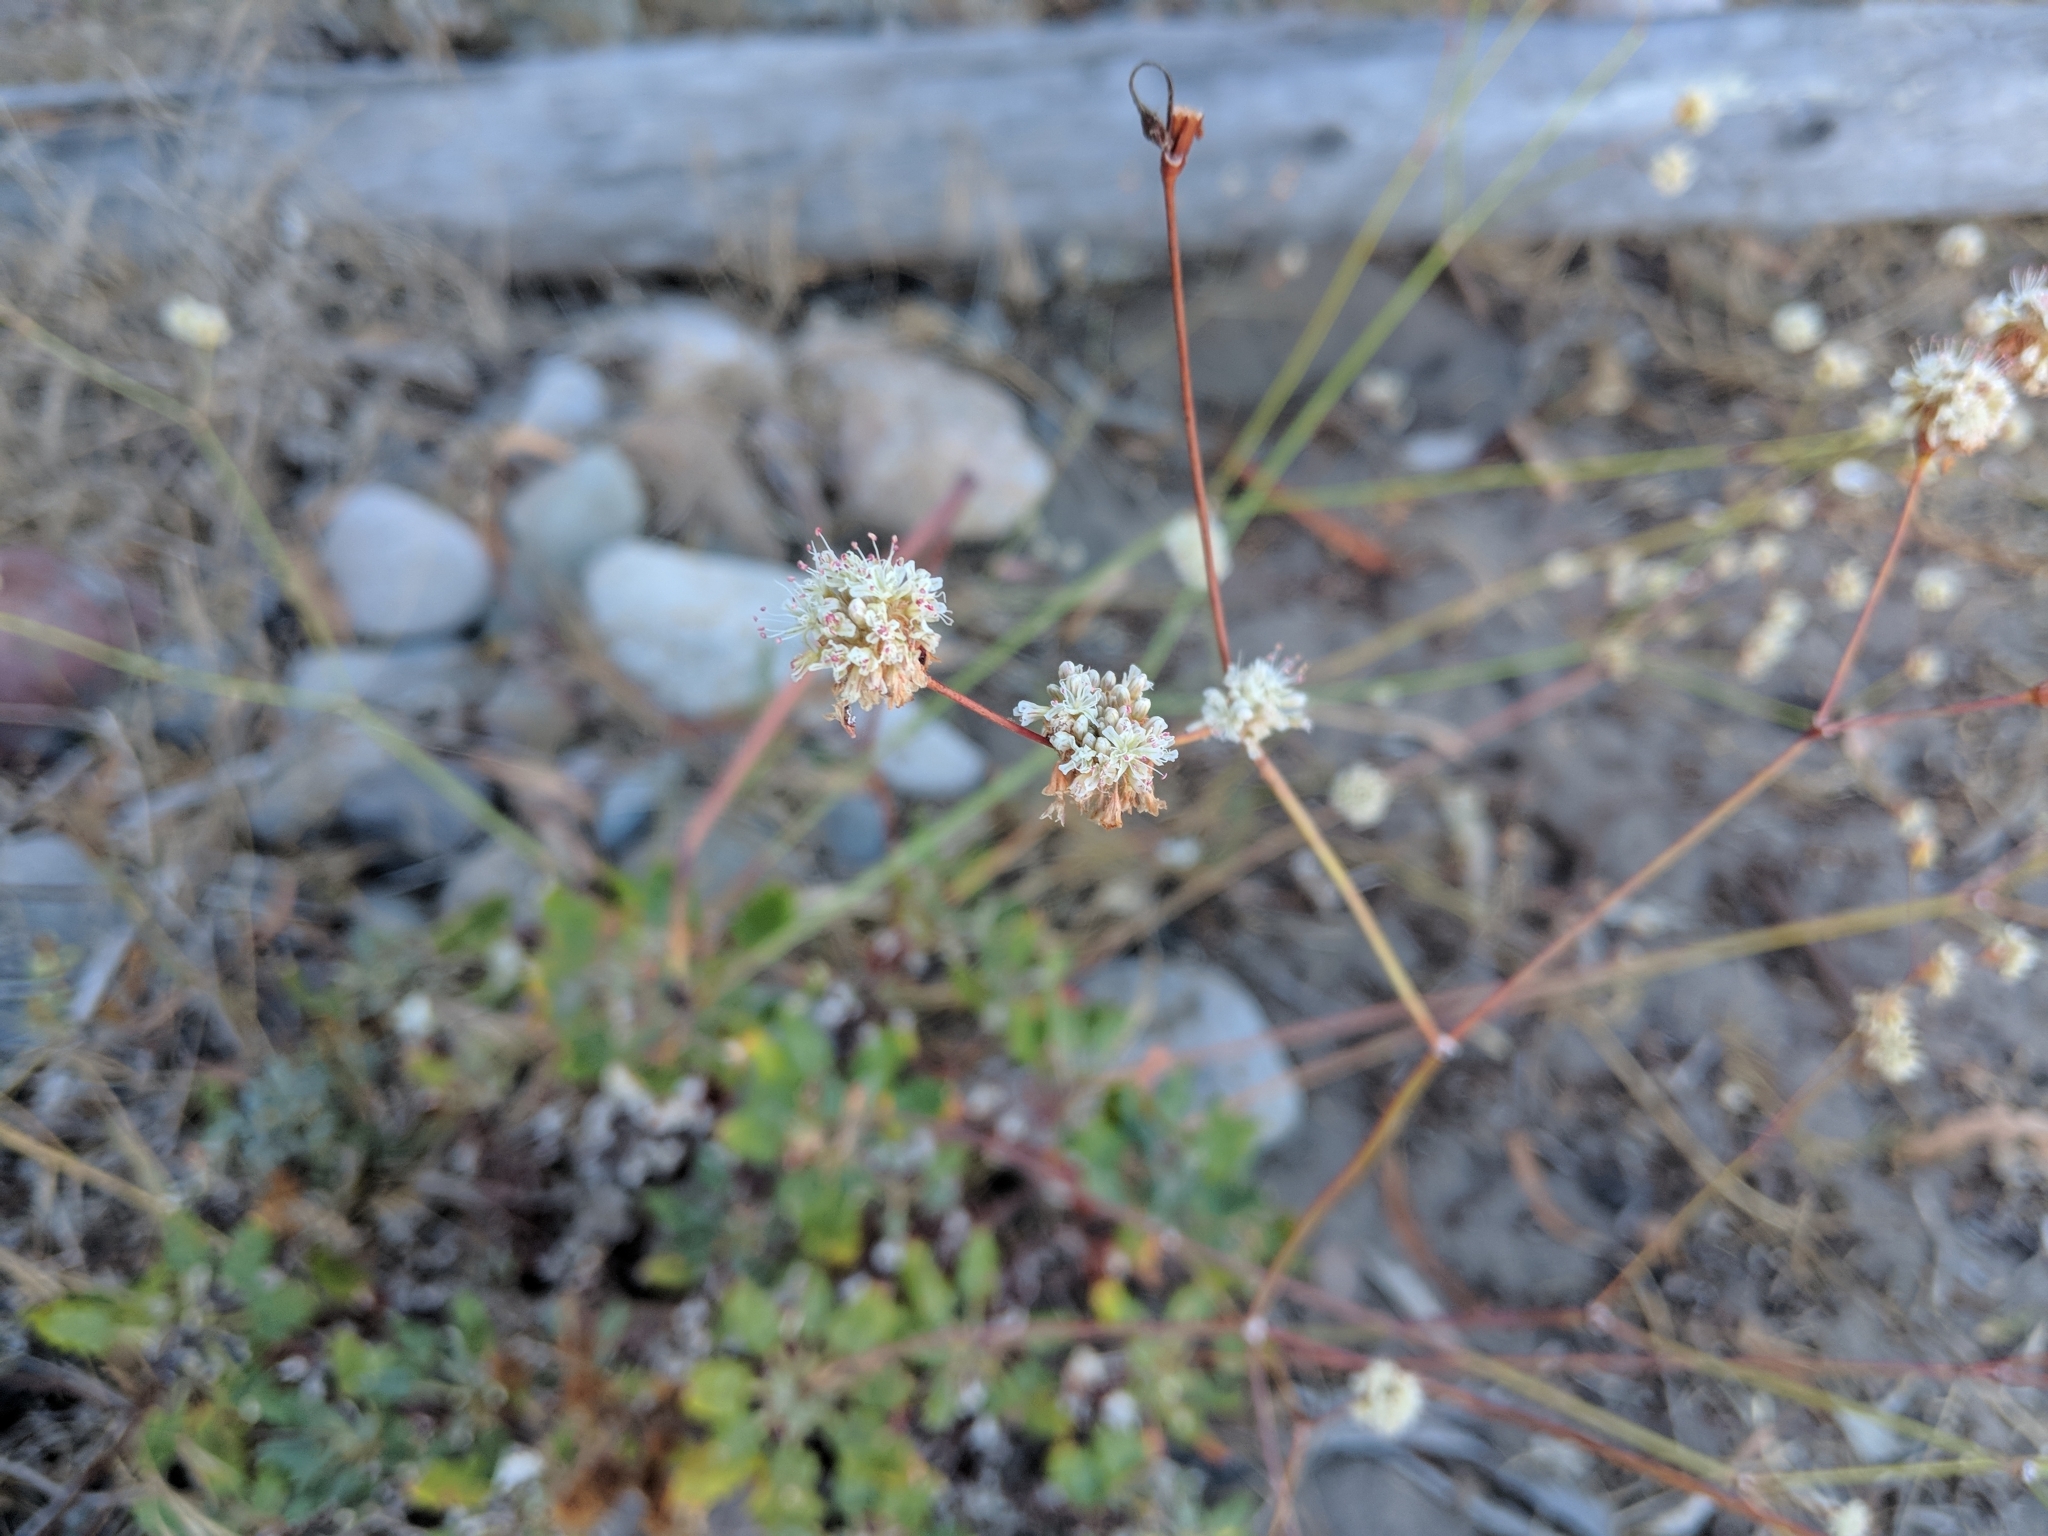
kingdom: Plantae
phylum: Tracheophyta
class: Magnoliopsida
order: Caryophyllales
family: Polygonaceae
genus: Eriogonum
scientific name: Eriogonum grande
